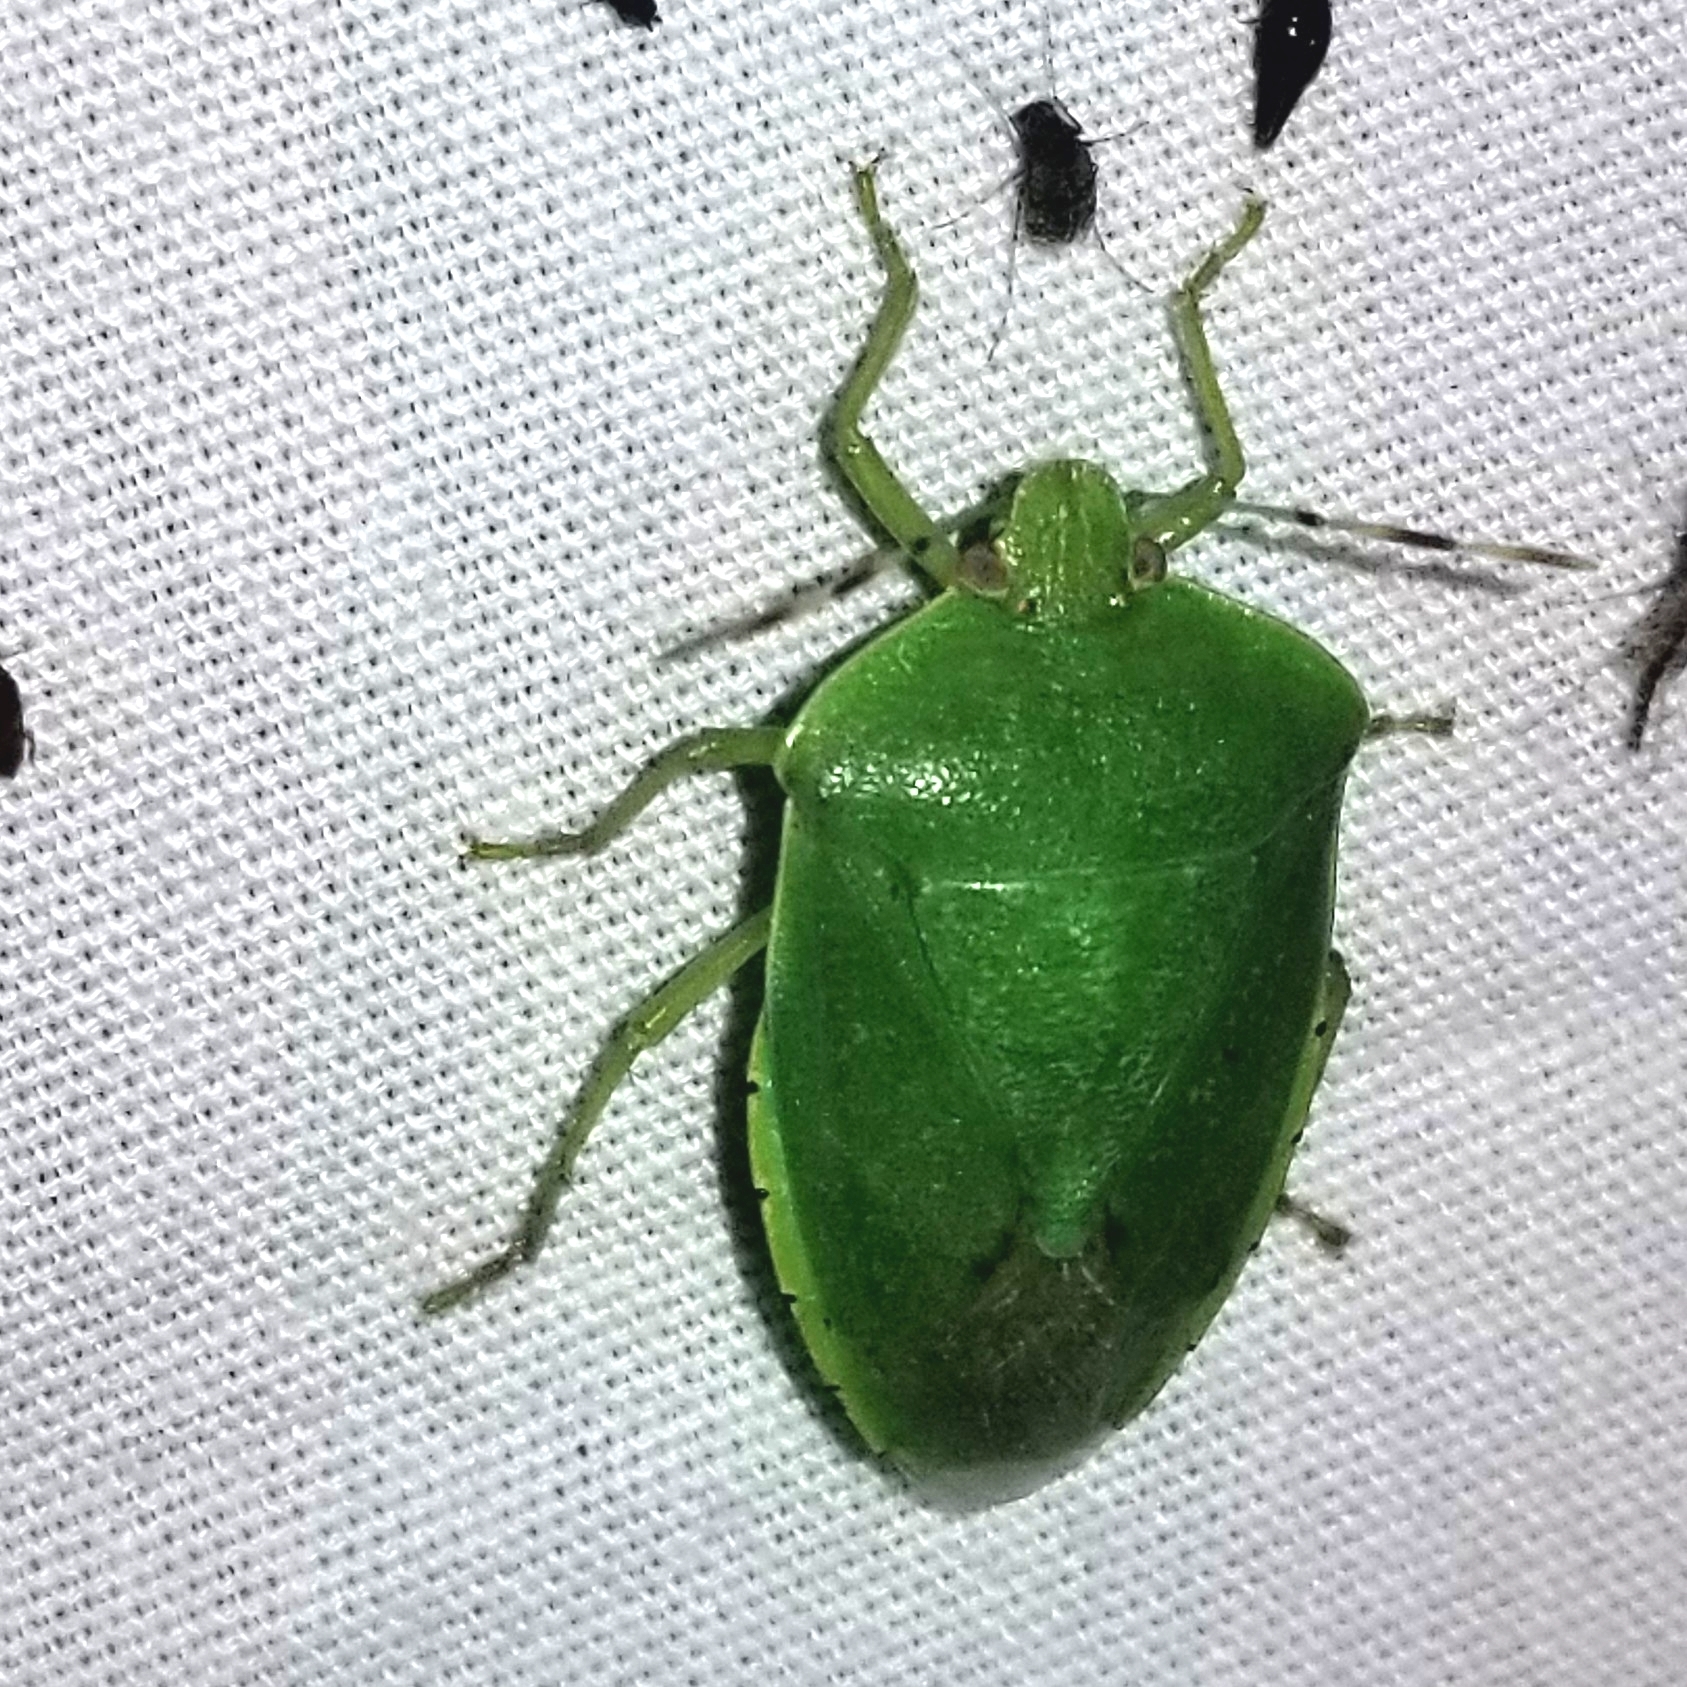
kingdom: Animalia
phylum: Arthropoda
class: Insecta
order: Hemiptera
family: Pentatomidae
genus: Chinavia
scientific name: Chinavia hilaris
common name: Green stink bug
